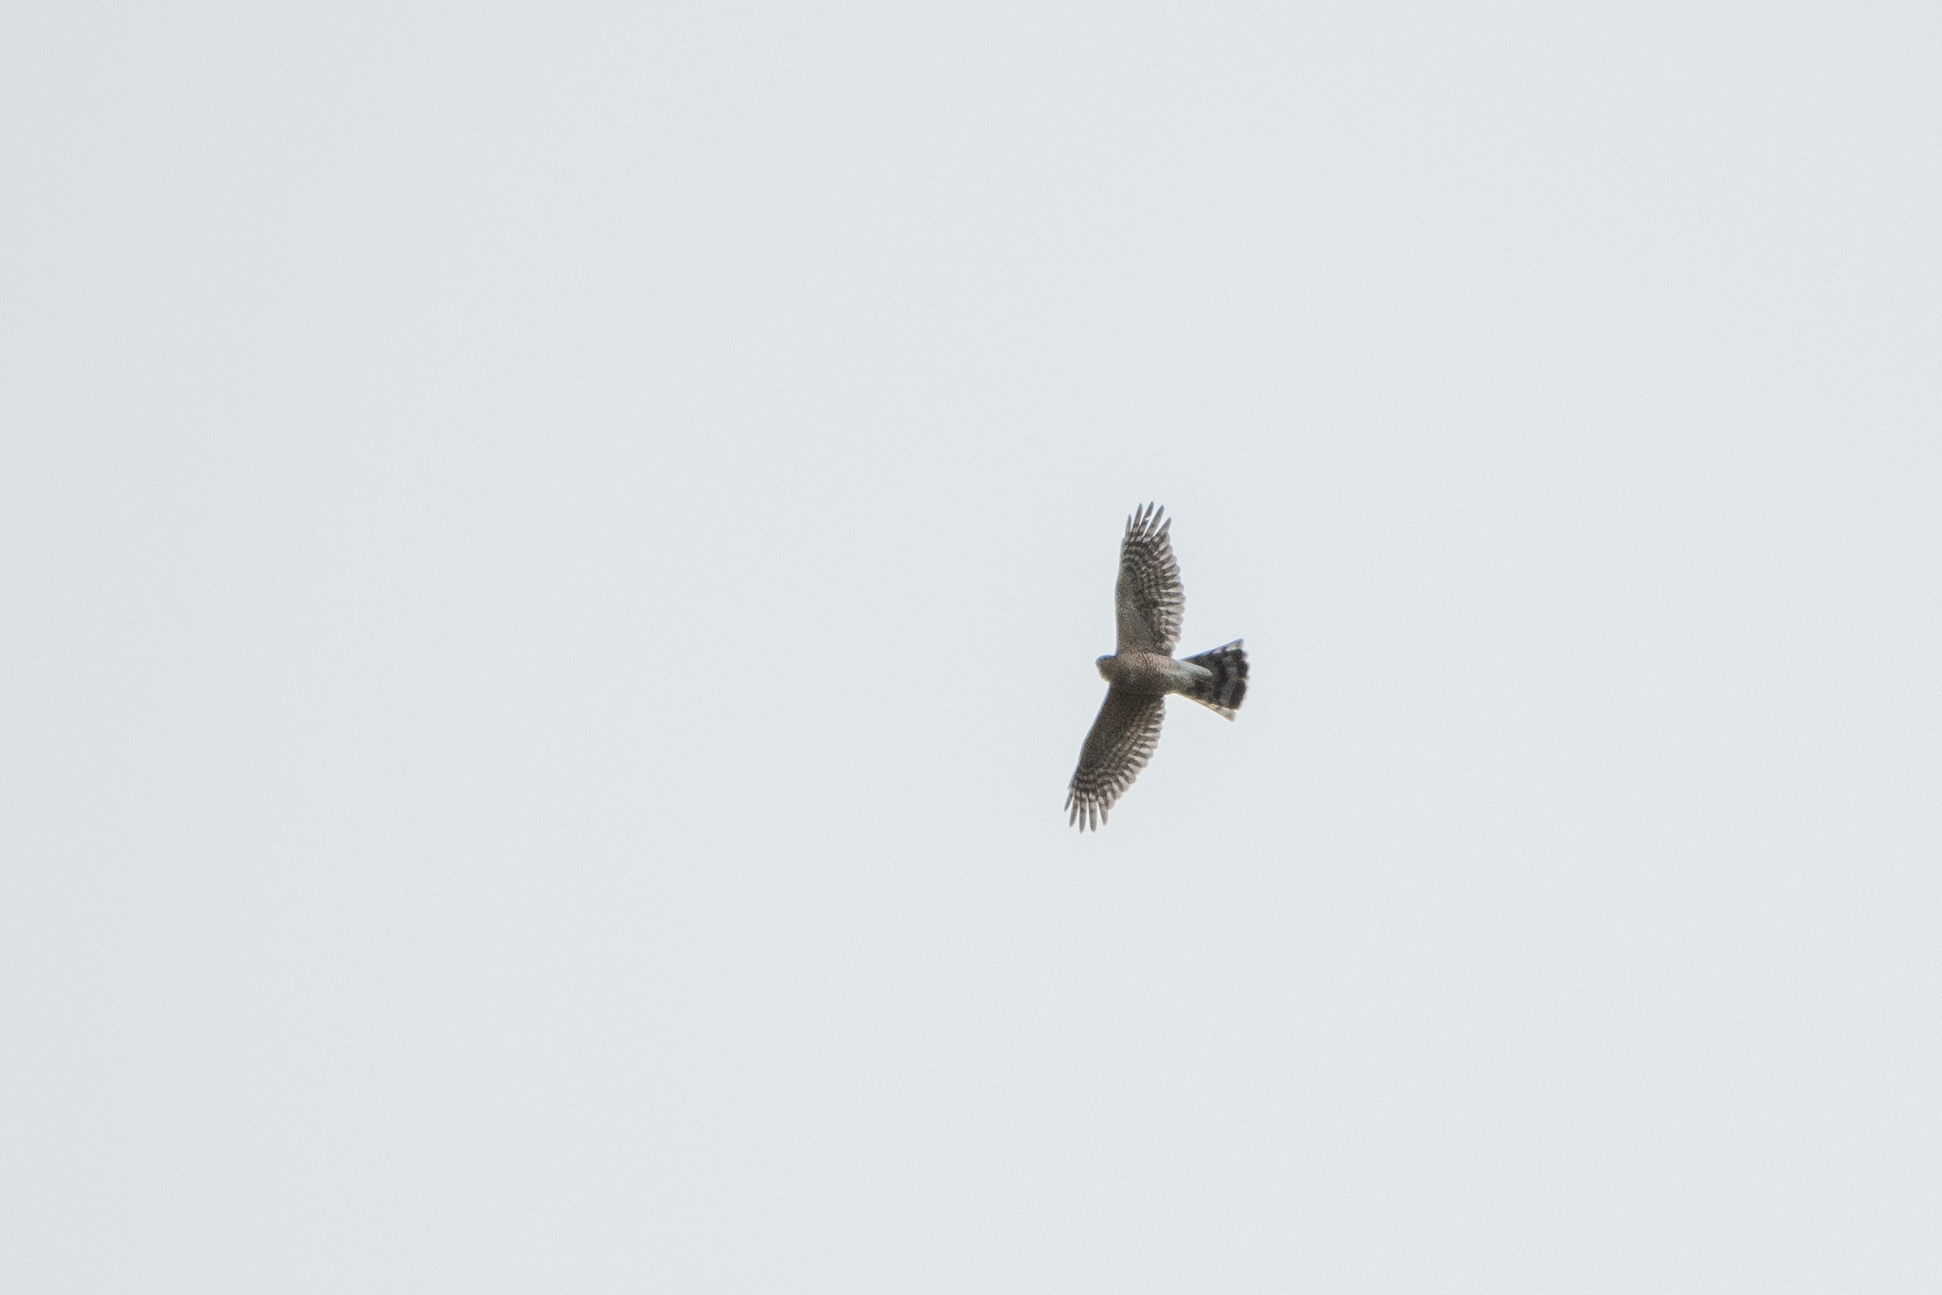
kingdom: Animalia
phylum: Chordata
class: Aves
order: Accipitriformes
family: Accipitridae
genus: Accipiter
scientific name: Accipiter striatus
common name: Sharp-shinned hawk
